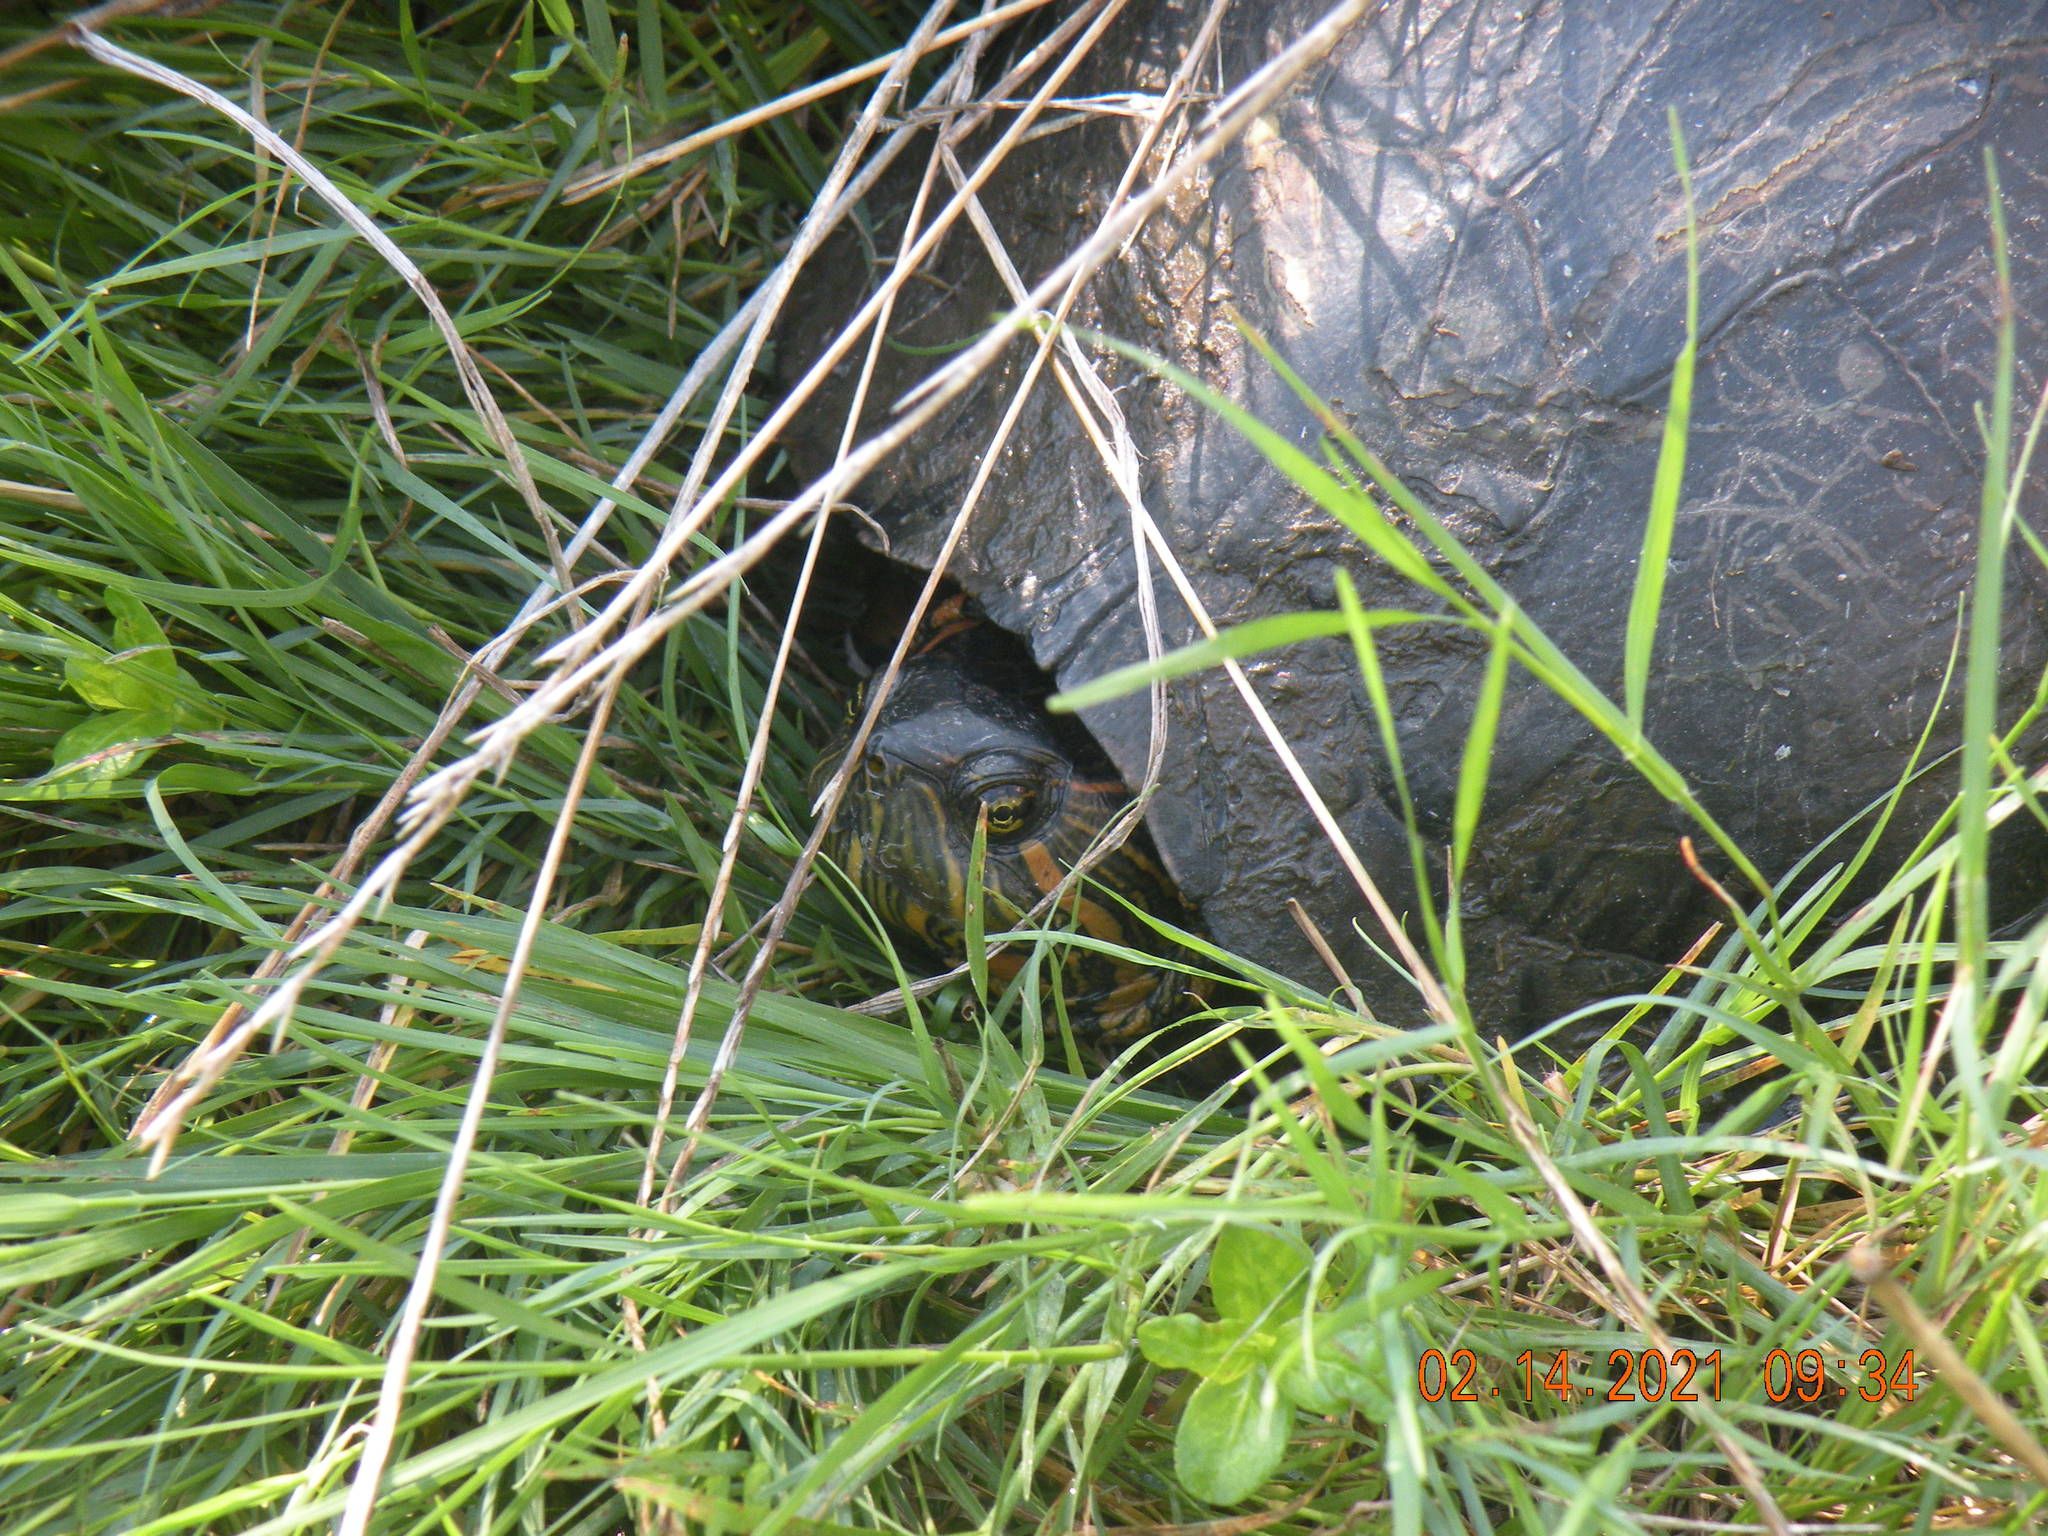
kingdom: Animalia
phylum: Chordata
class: Testudines
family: Emydidae
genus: Trachemys
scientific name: Trachemys dorbigni
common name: Black-bellied slider
